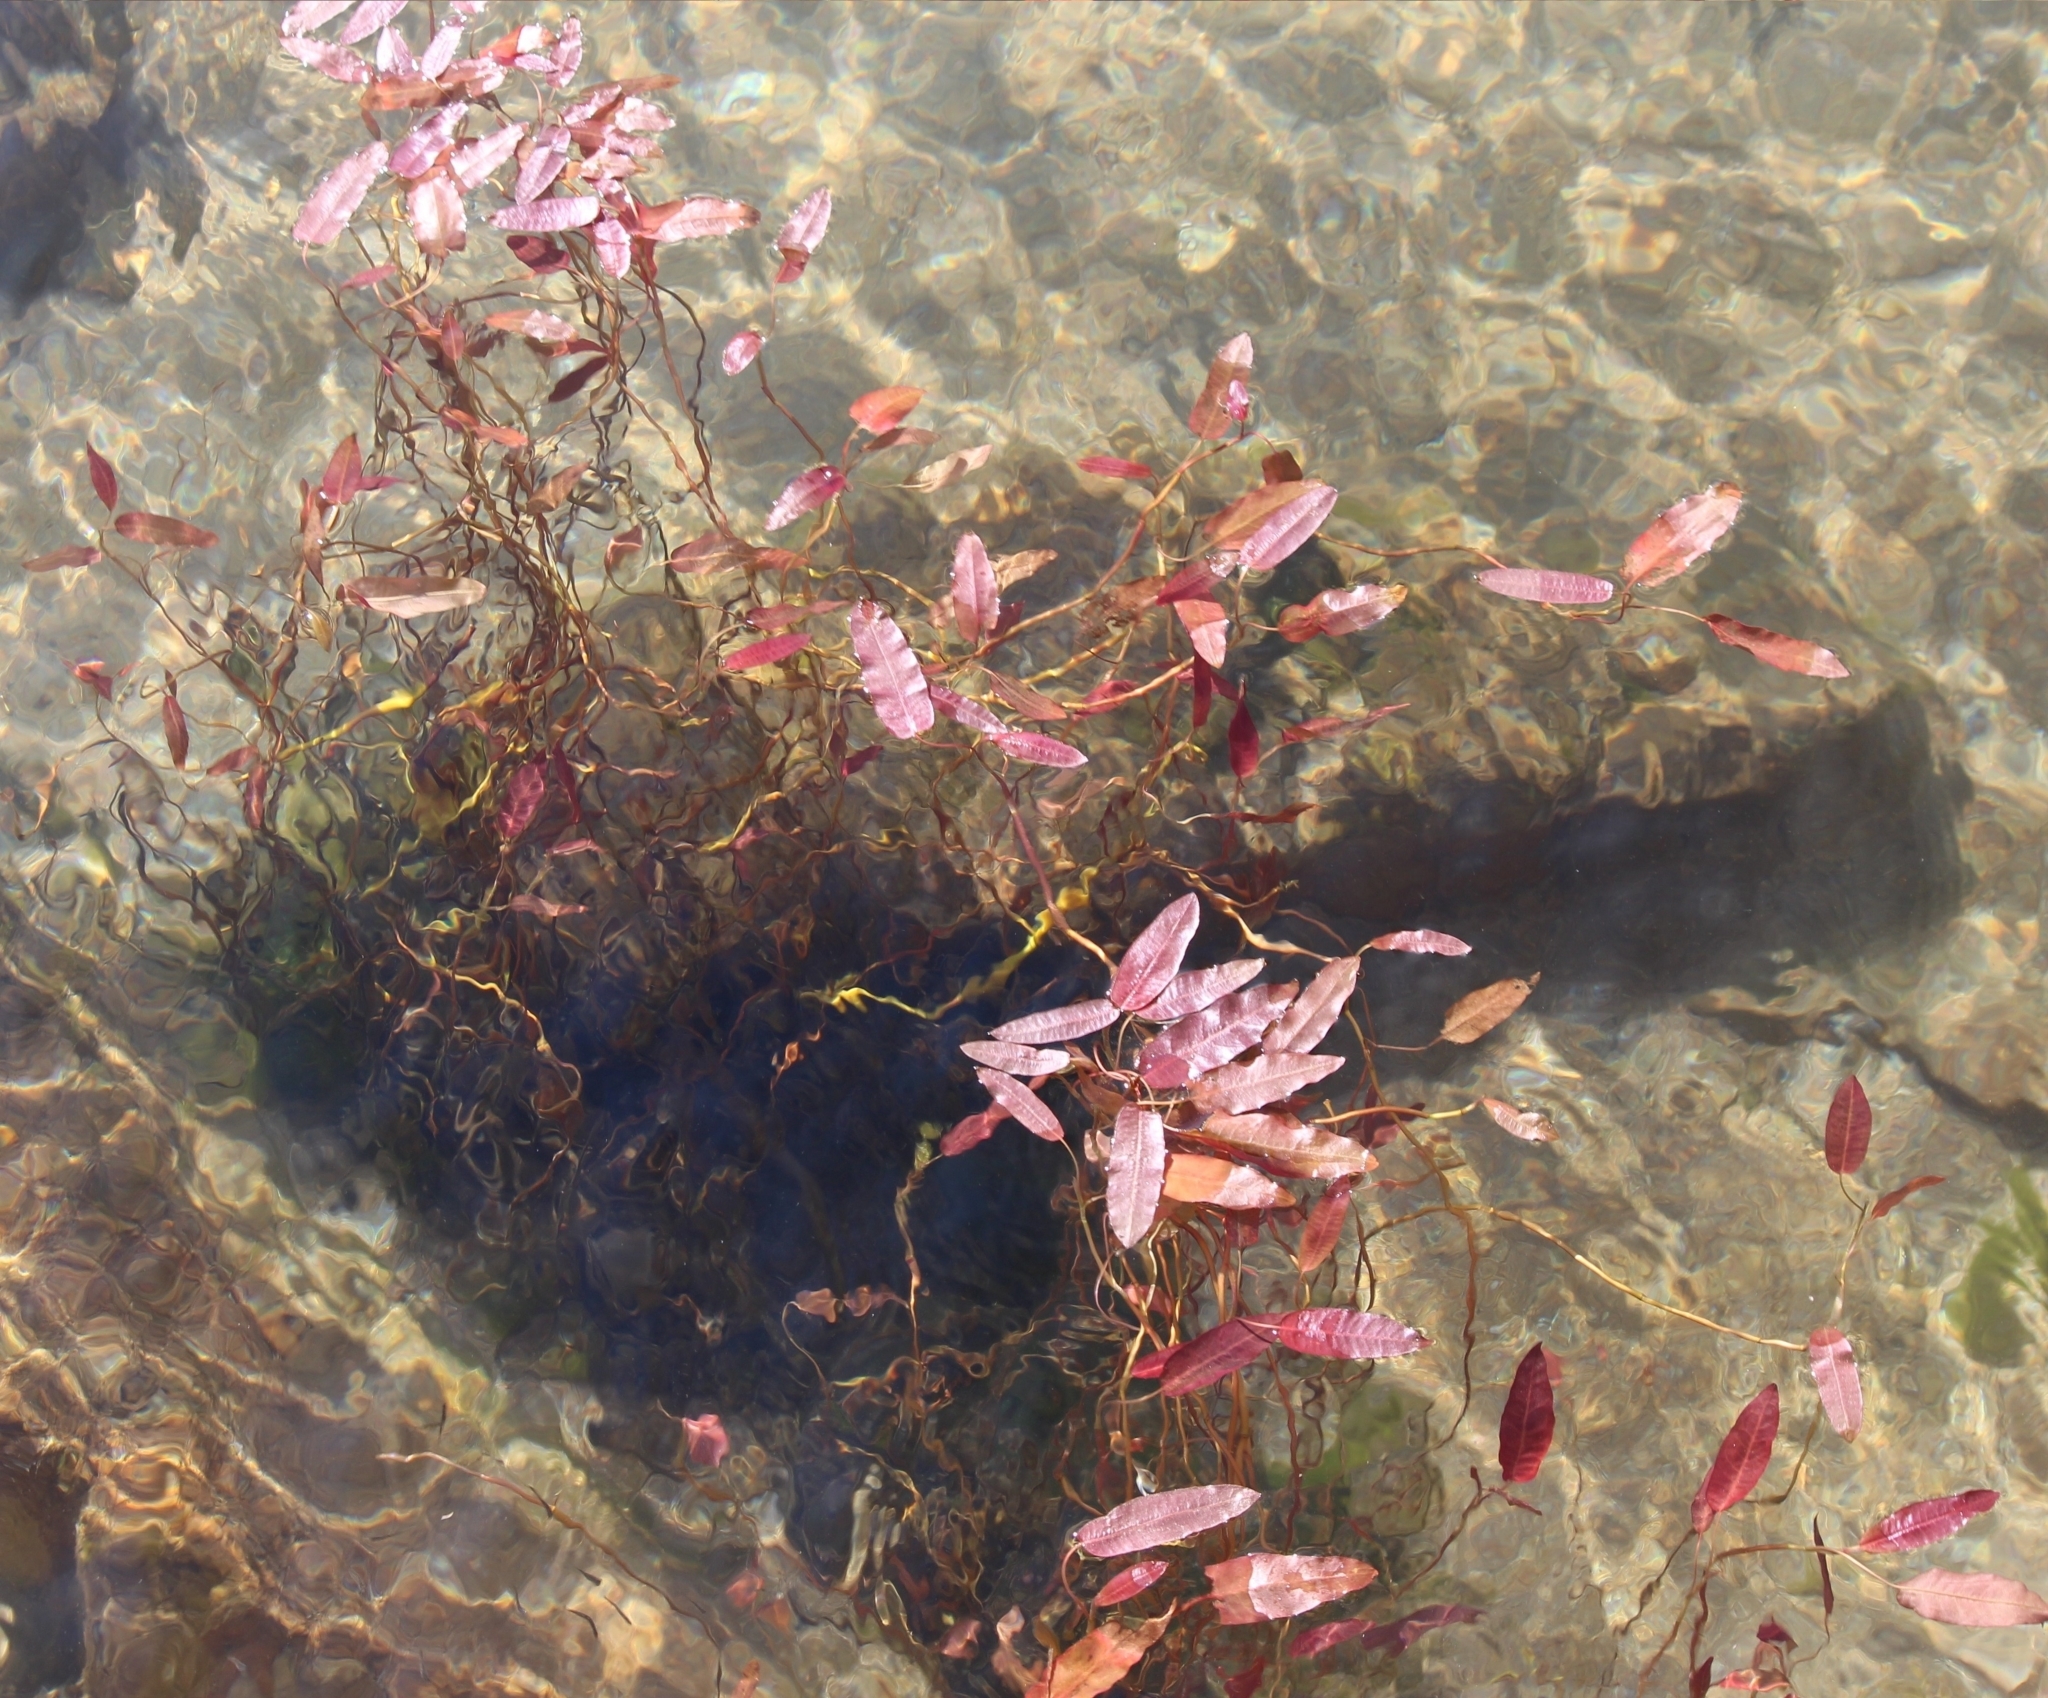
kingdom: Plantae
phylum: Tracheophyta
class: Magnoliopsida
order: Caryophyllales
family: Polygonaceae
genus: Persicaria
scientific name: Persicaria amphibia
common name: Amphibious bistort
